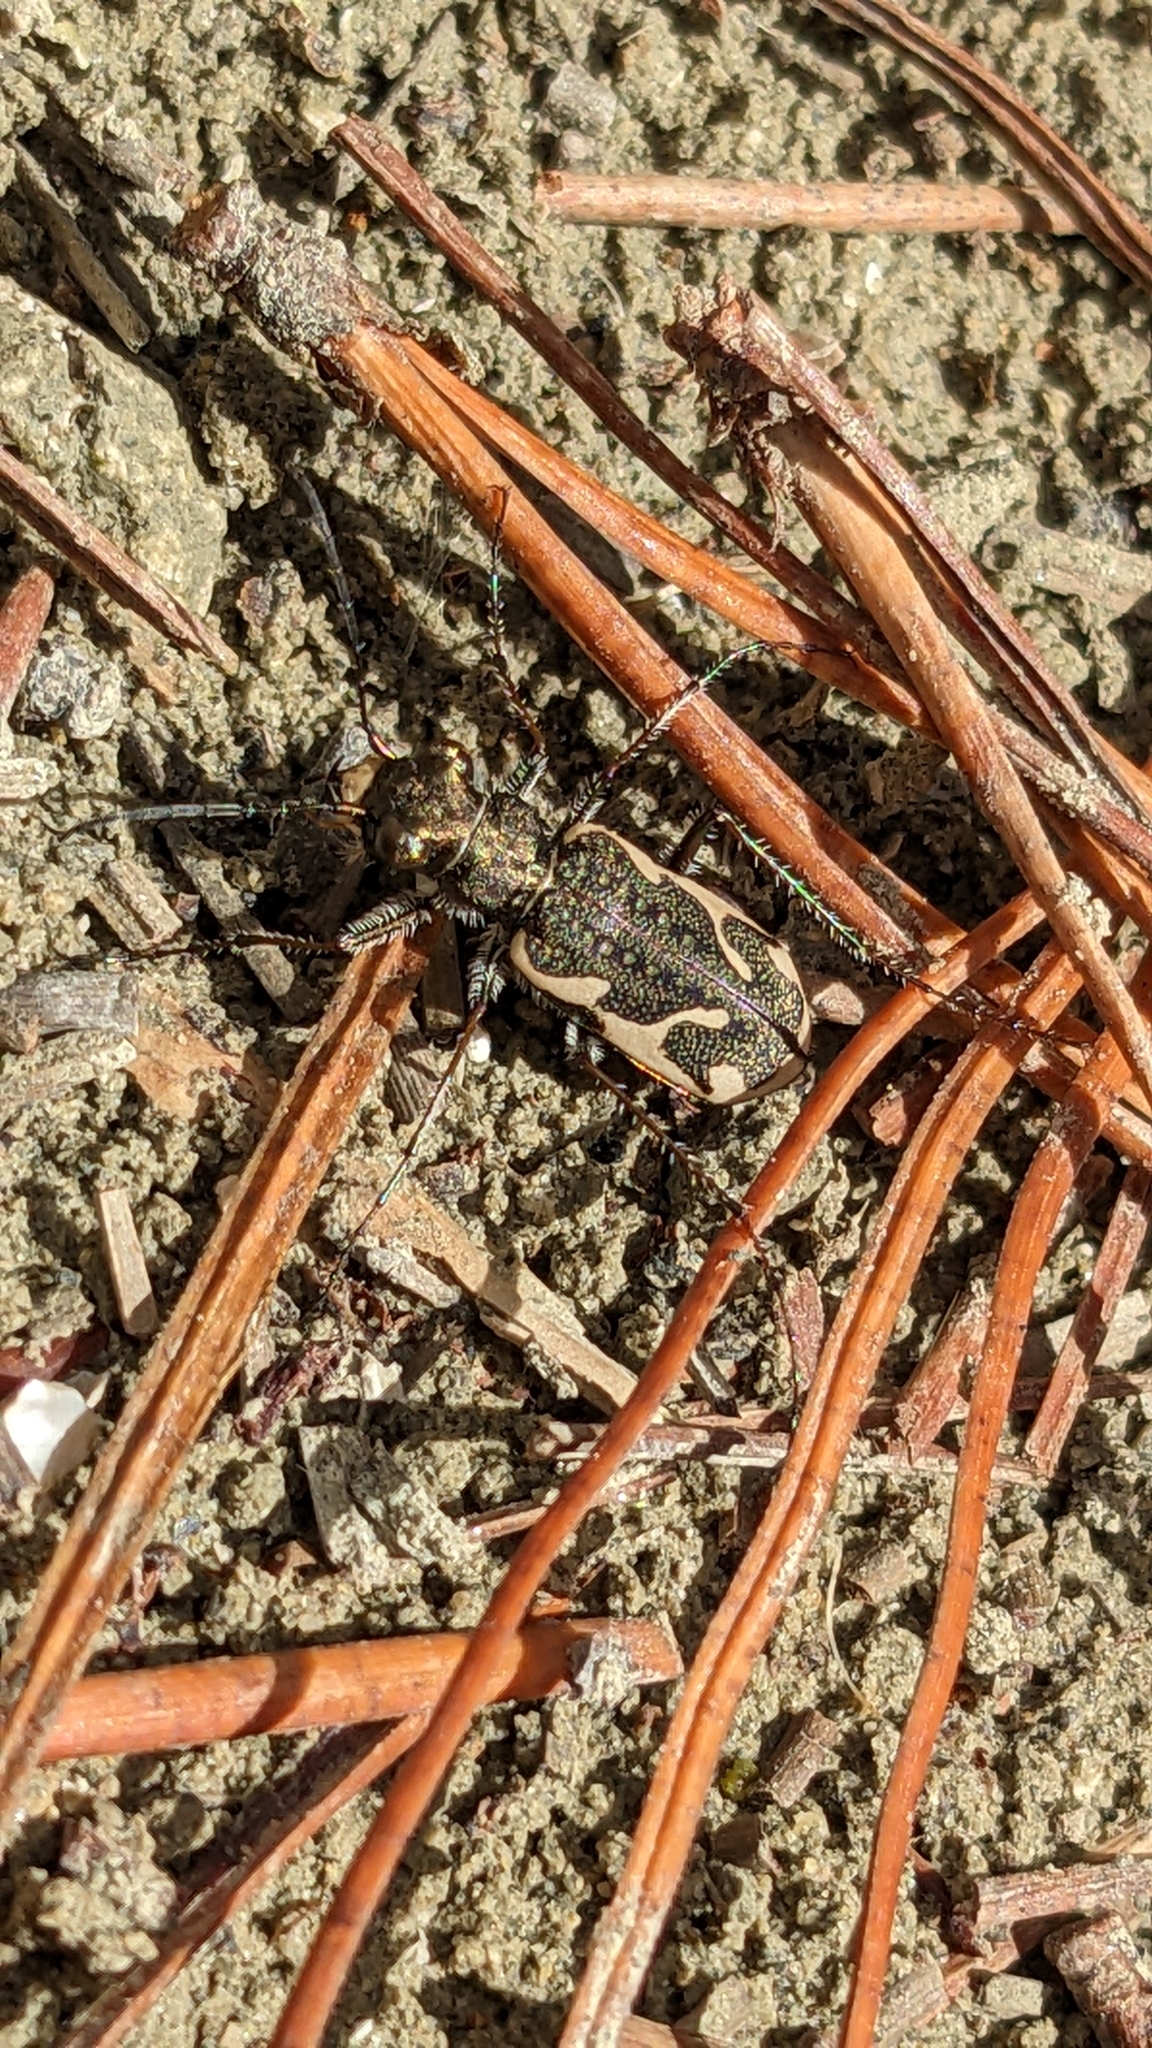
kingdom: Animalia
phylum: Arthropoda
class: Insecta
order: Coleoptera
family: Carabidae
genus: Neocicindela
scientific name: Neocicindela tuberculata
